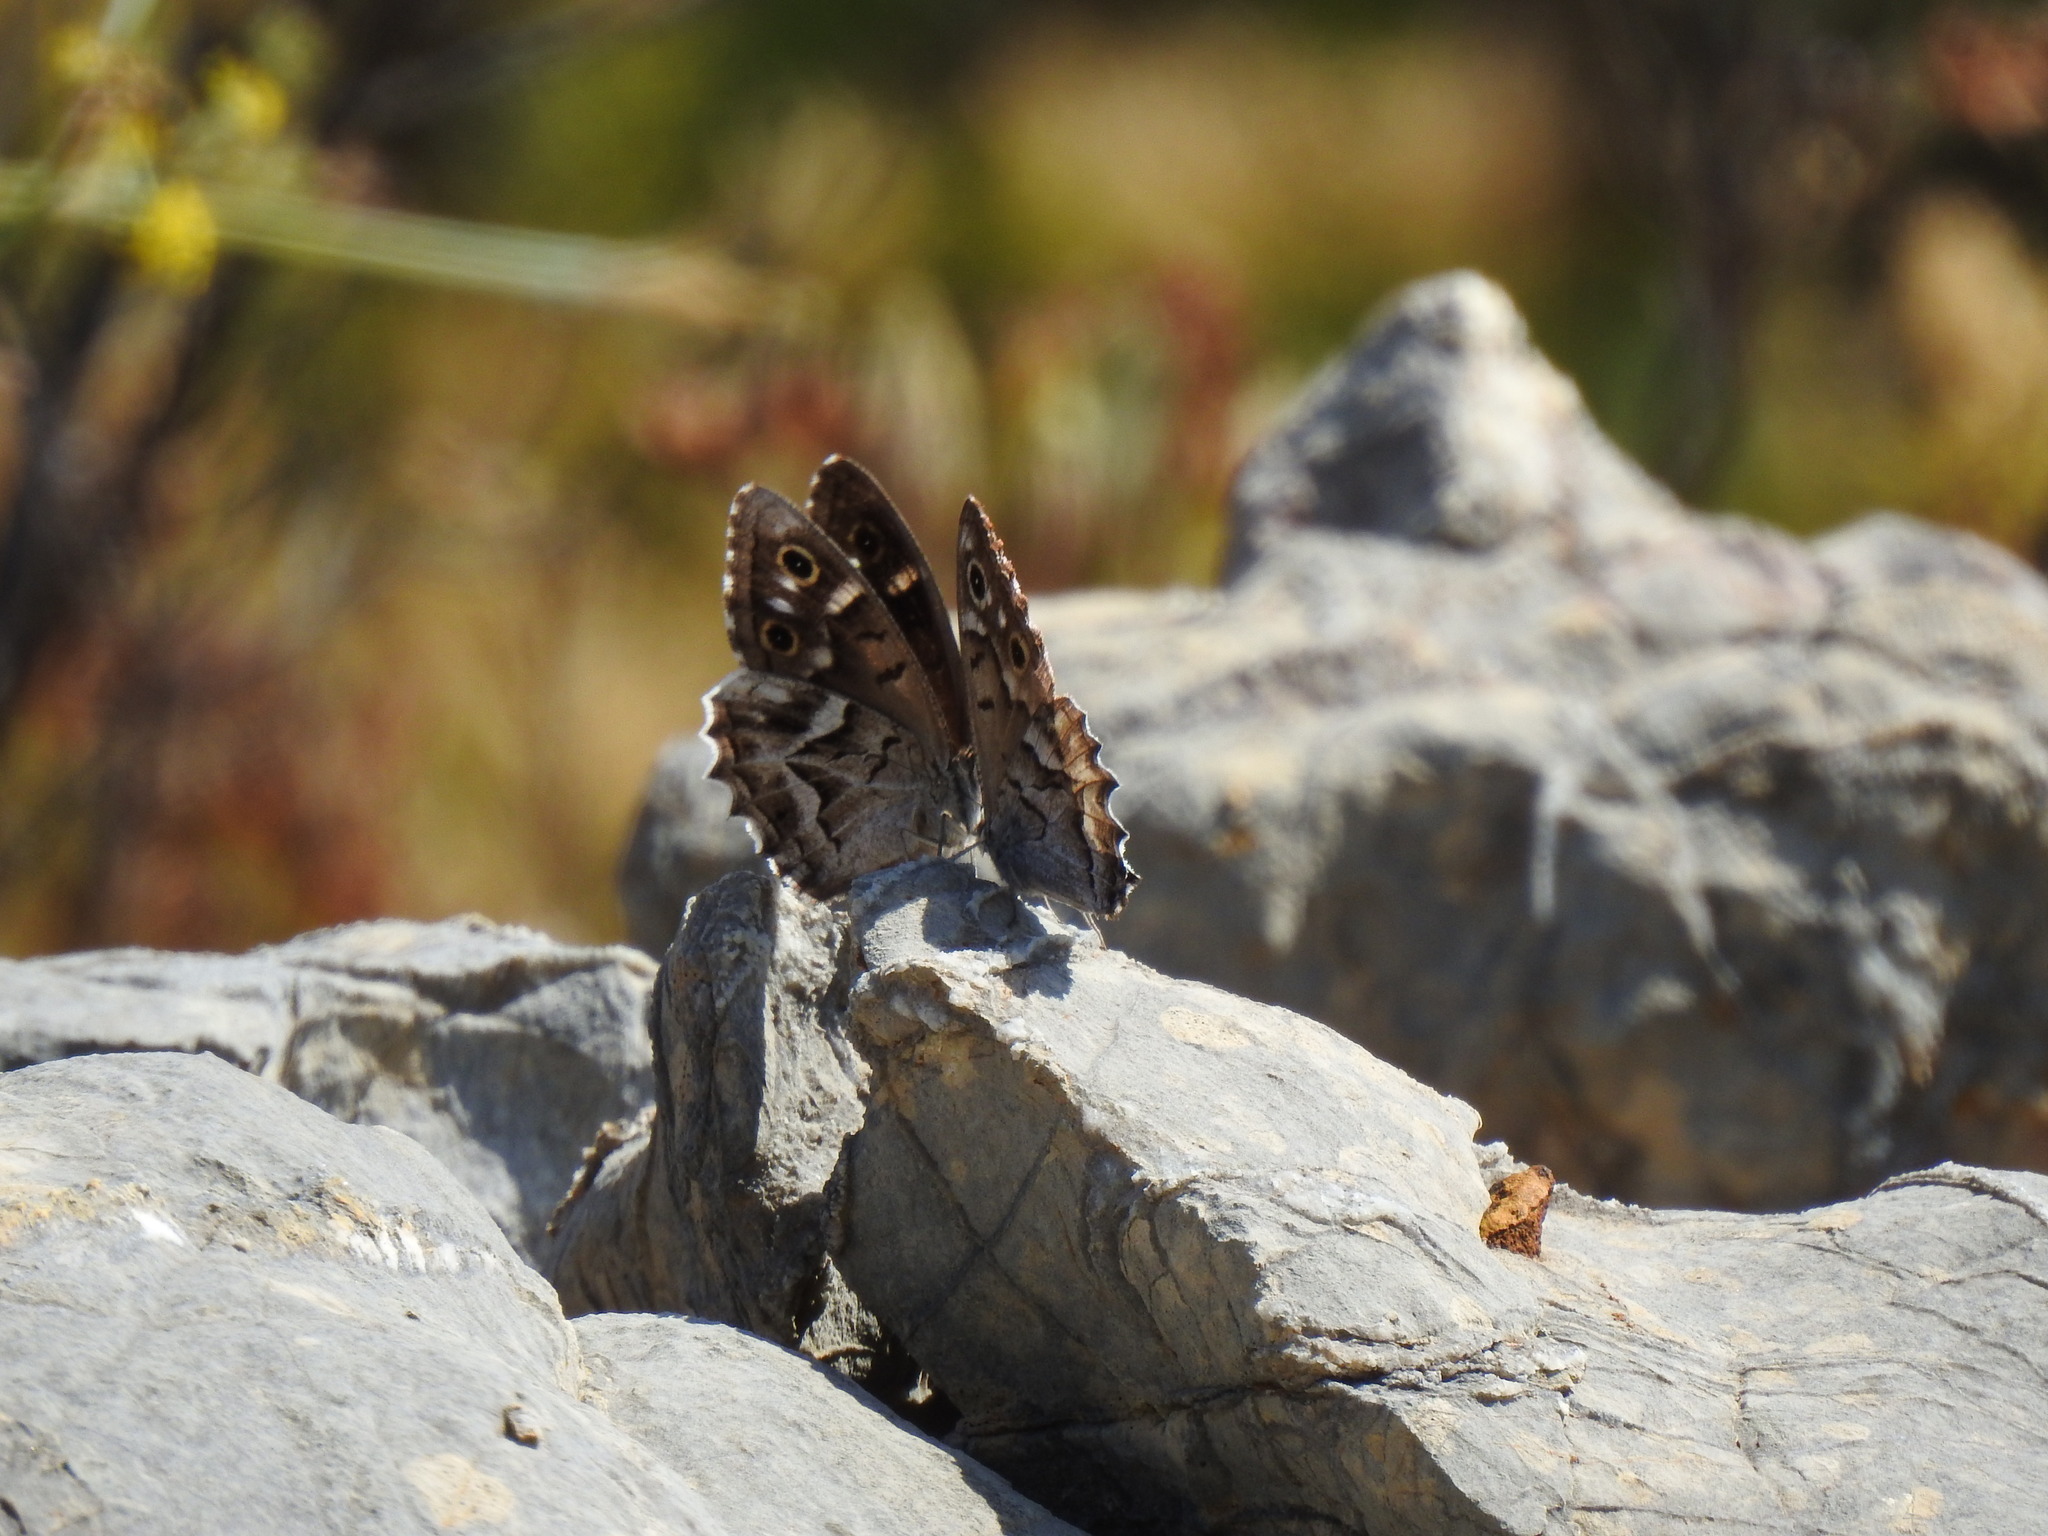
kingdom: Animalia
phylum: Arthropoda
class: Insecta
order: Lepidoptera
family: Nymphalidae
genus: Hipparchia
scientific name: Hipparchia fidia
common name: Striped grayling
